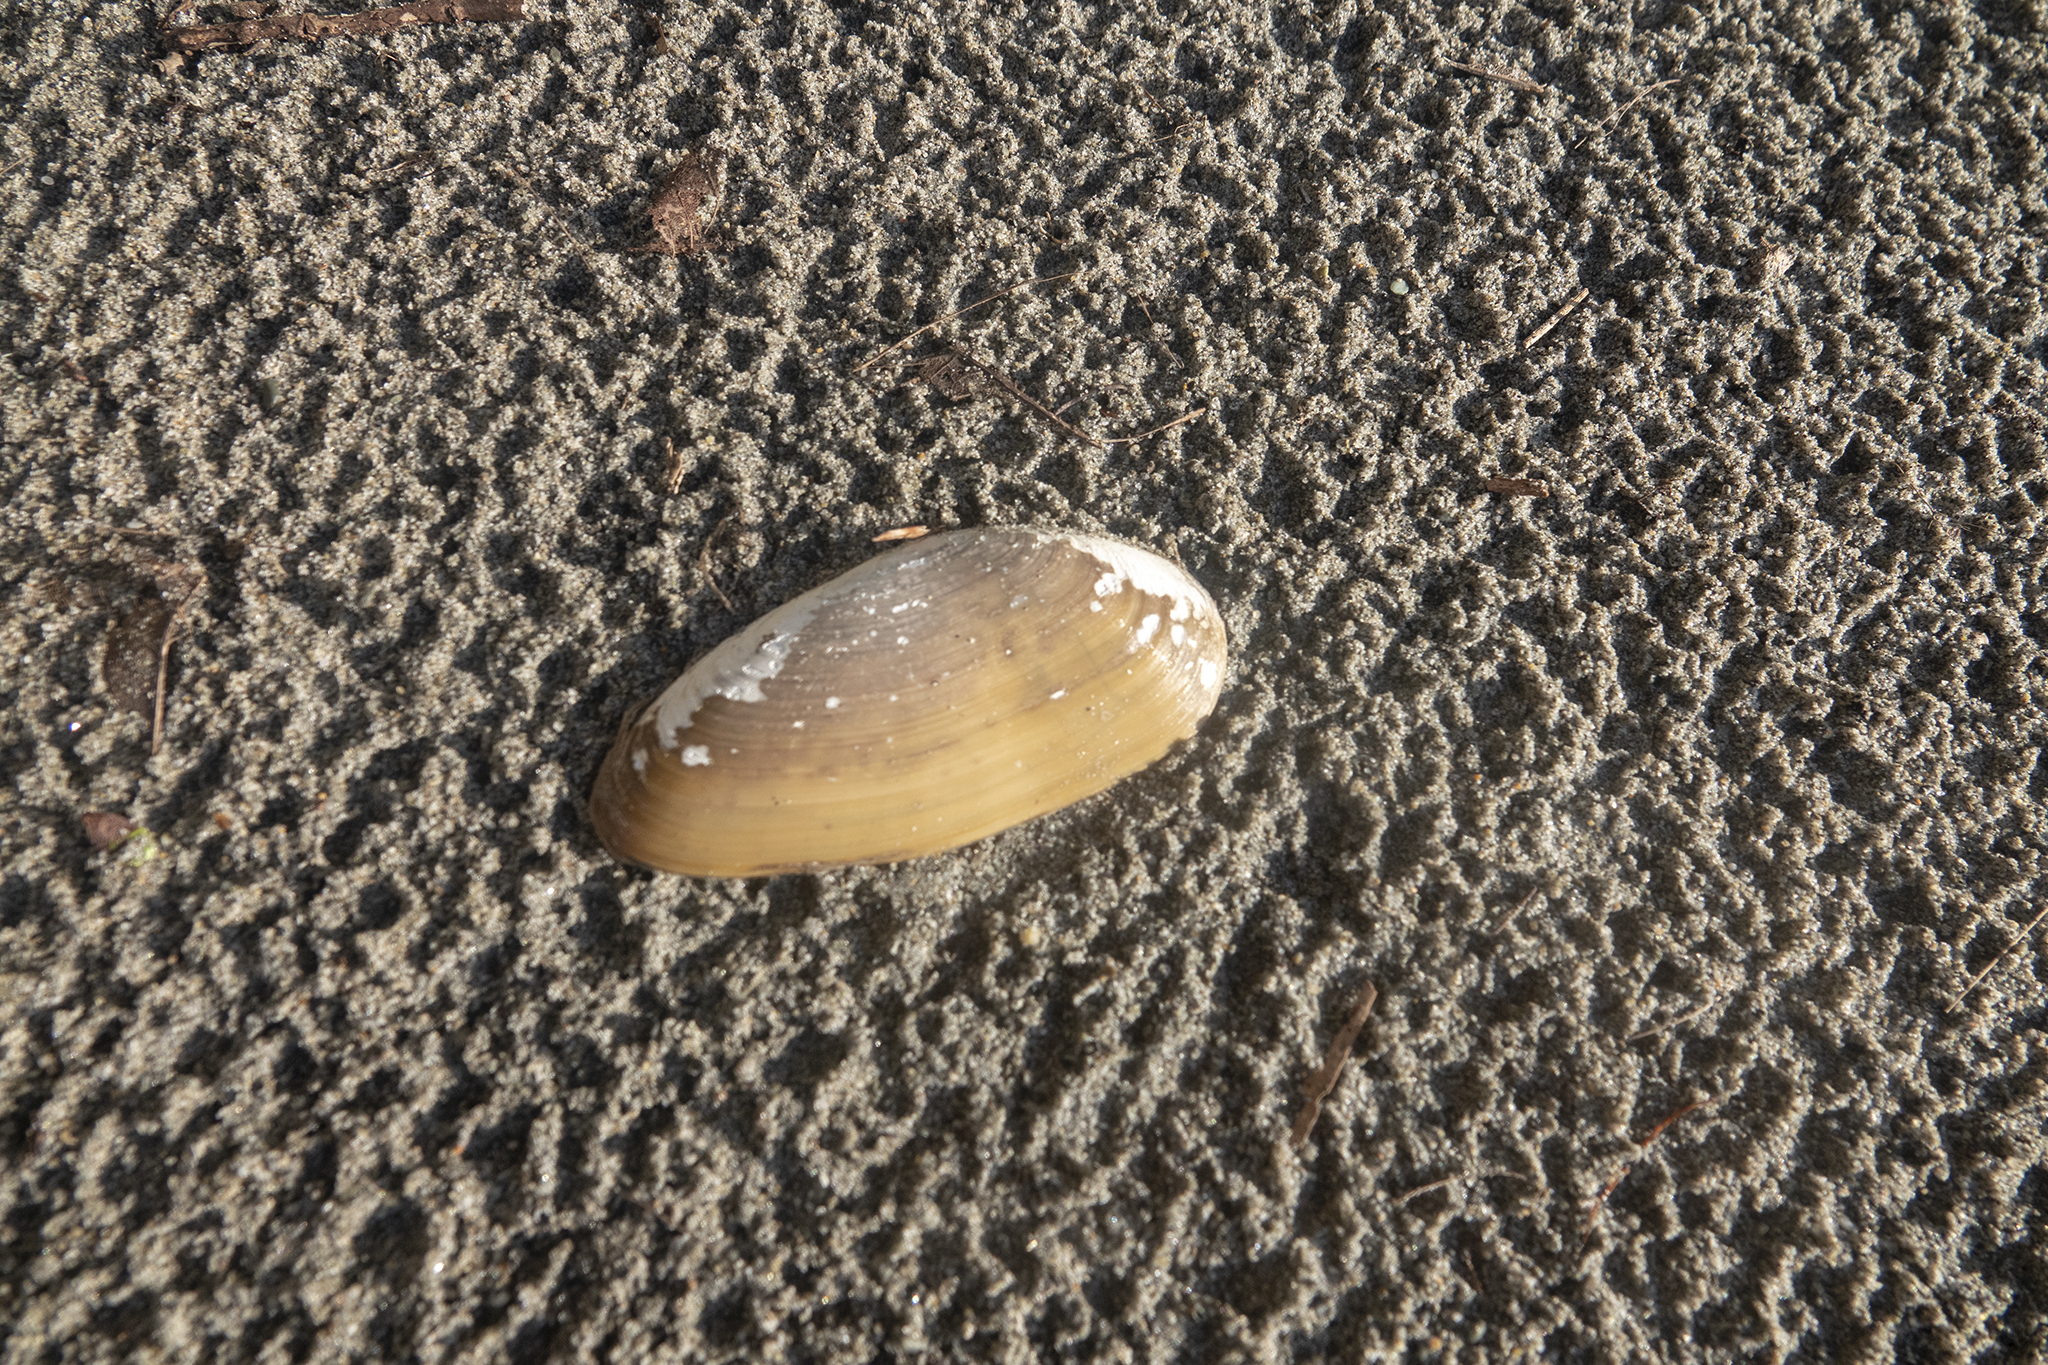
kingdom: Animalia
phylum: Mollusca
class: Bivalvia
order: Venerida
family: Mactridae
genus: Resania
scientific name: Resania lanceolata
